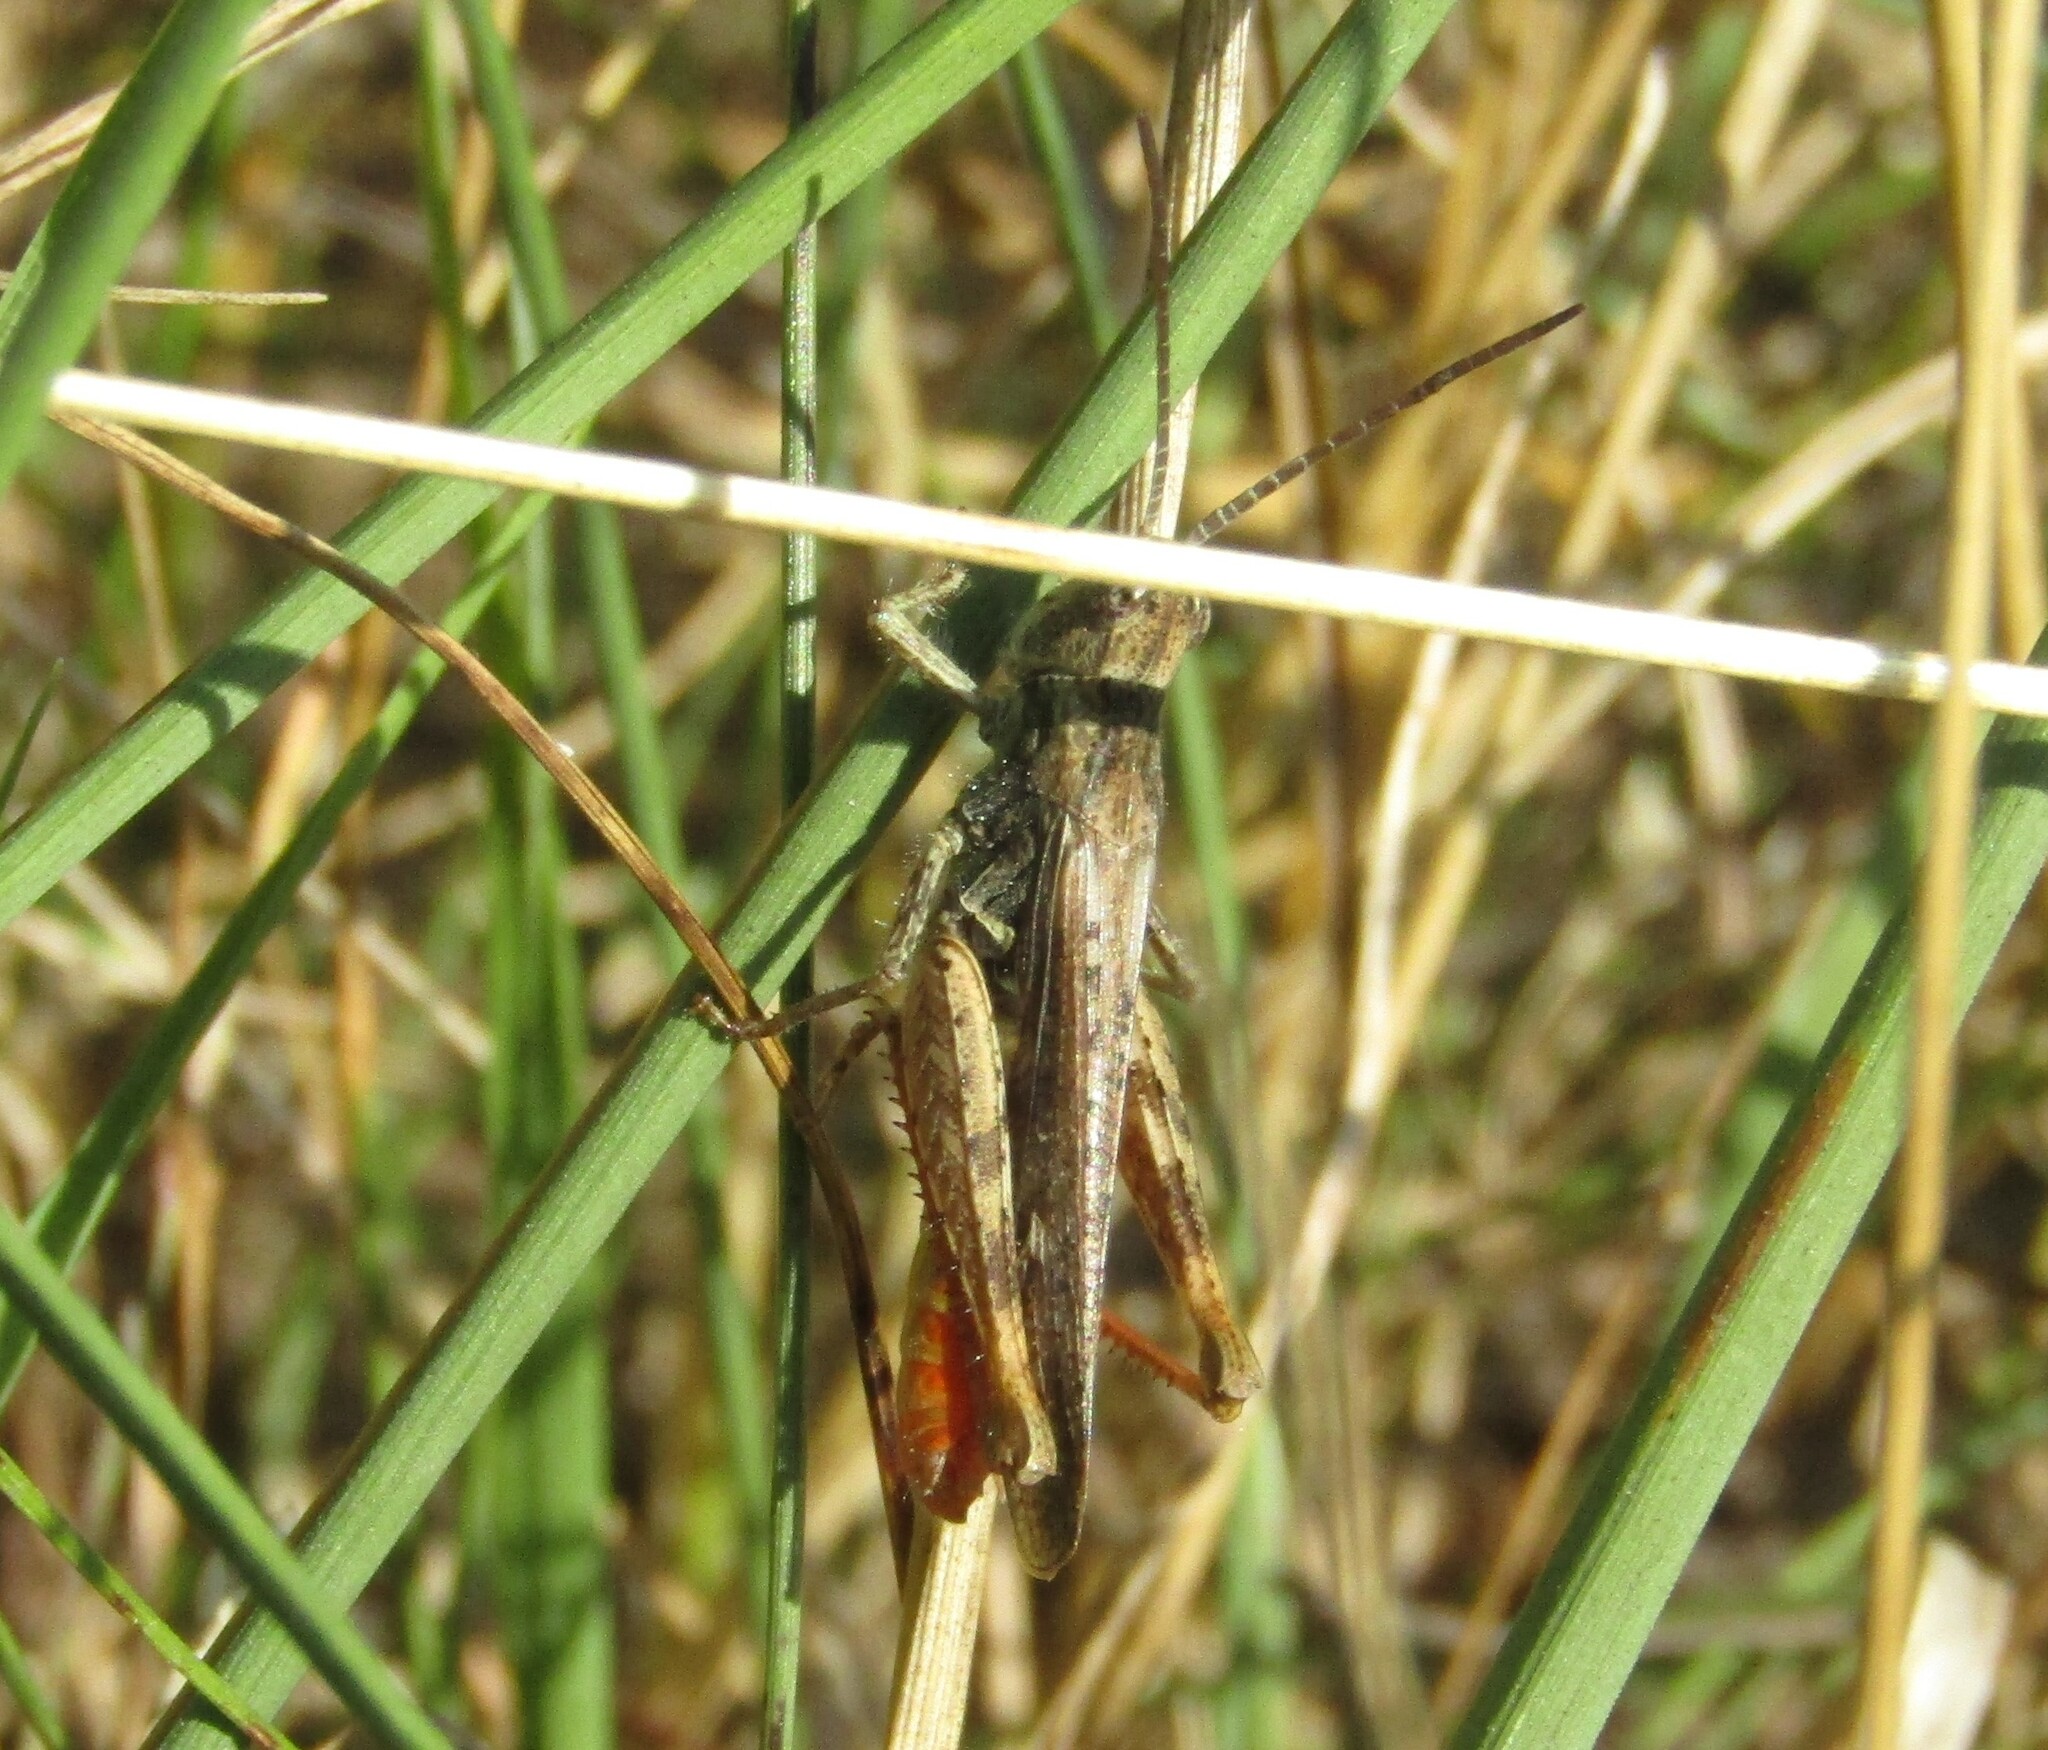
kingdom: Animalia
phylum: Arthropoda
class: Insecta
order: Orthoptera
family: Acrididae
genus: Chorthippus
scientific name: Chorthippus brunneus
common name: Field grasshopper
